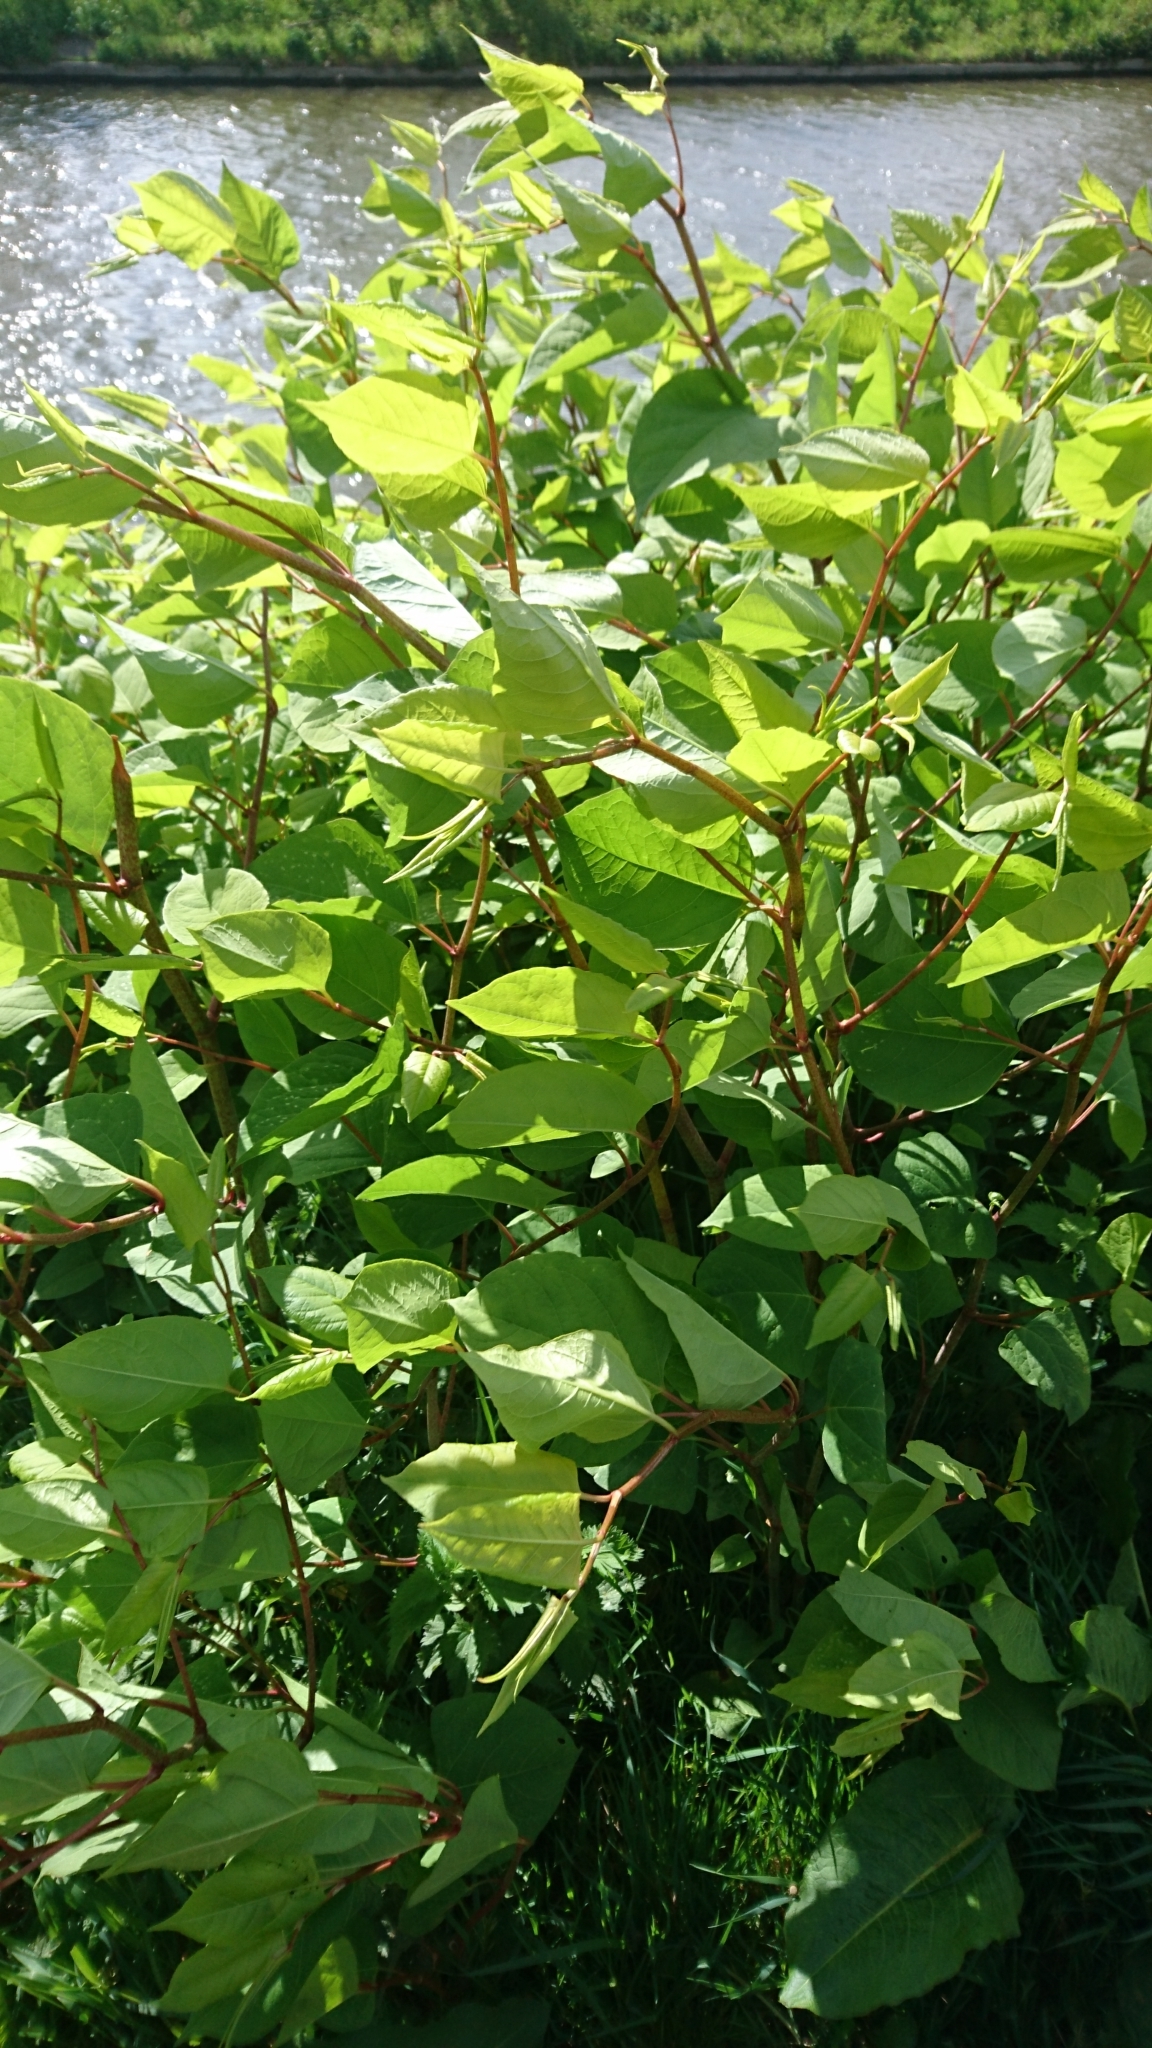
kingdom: Plantae
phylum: Tracheophyta
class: Magnoliopsida
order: Caryophyllales
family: Polygonaceae
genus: Reynoutria
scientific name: Reynoutria japonica
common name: Japanese knotweed
